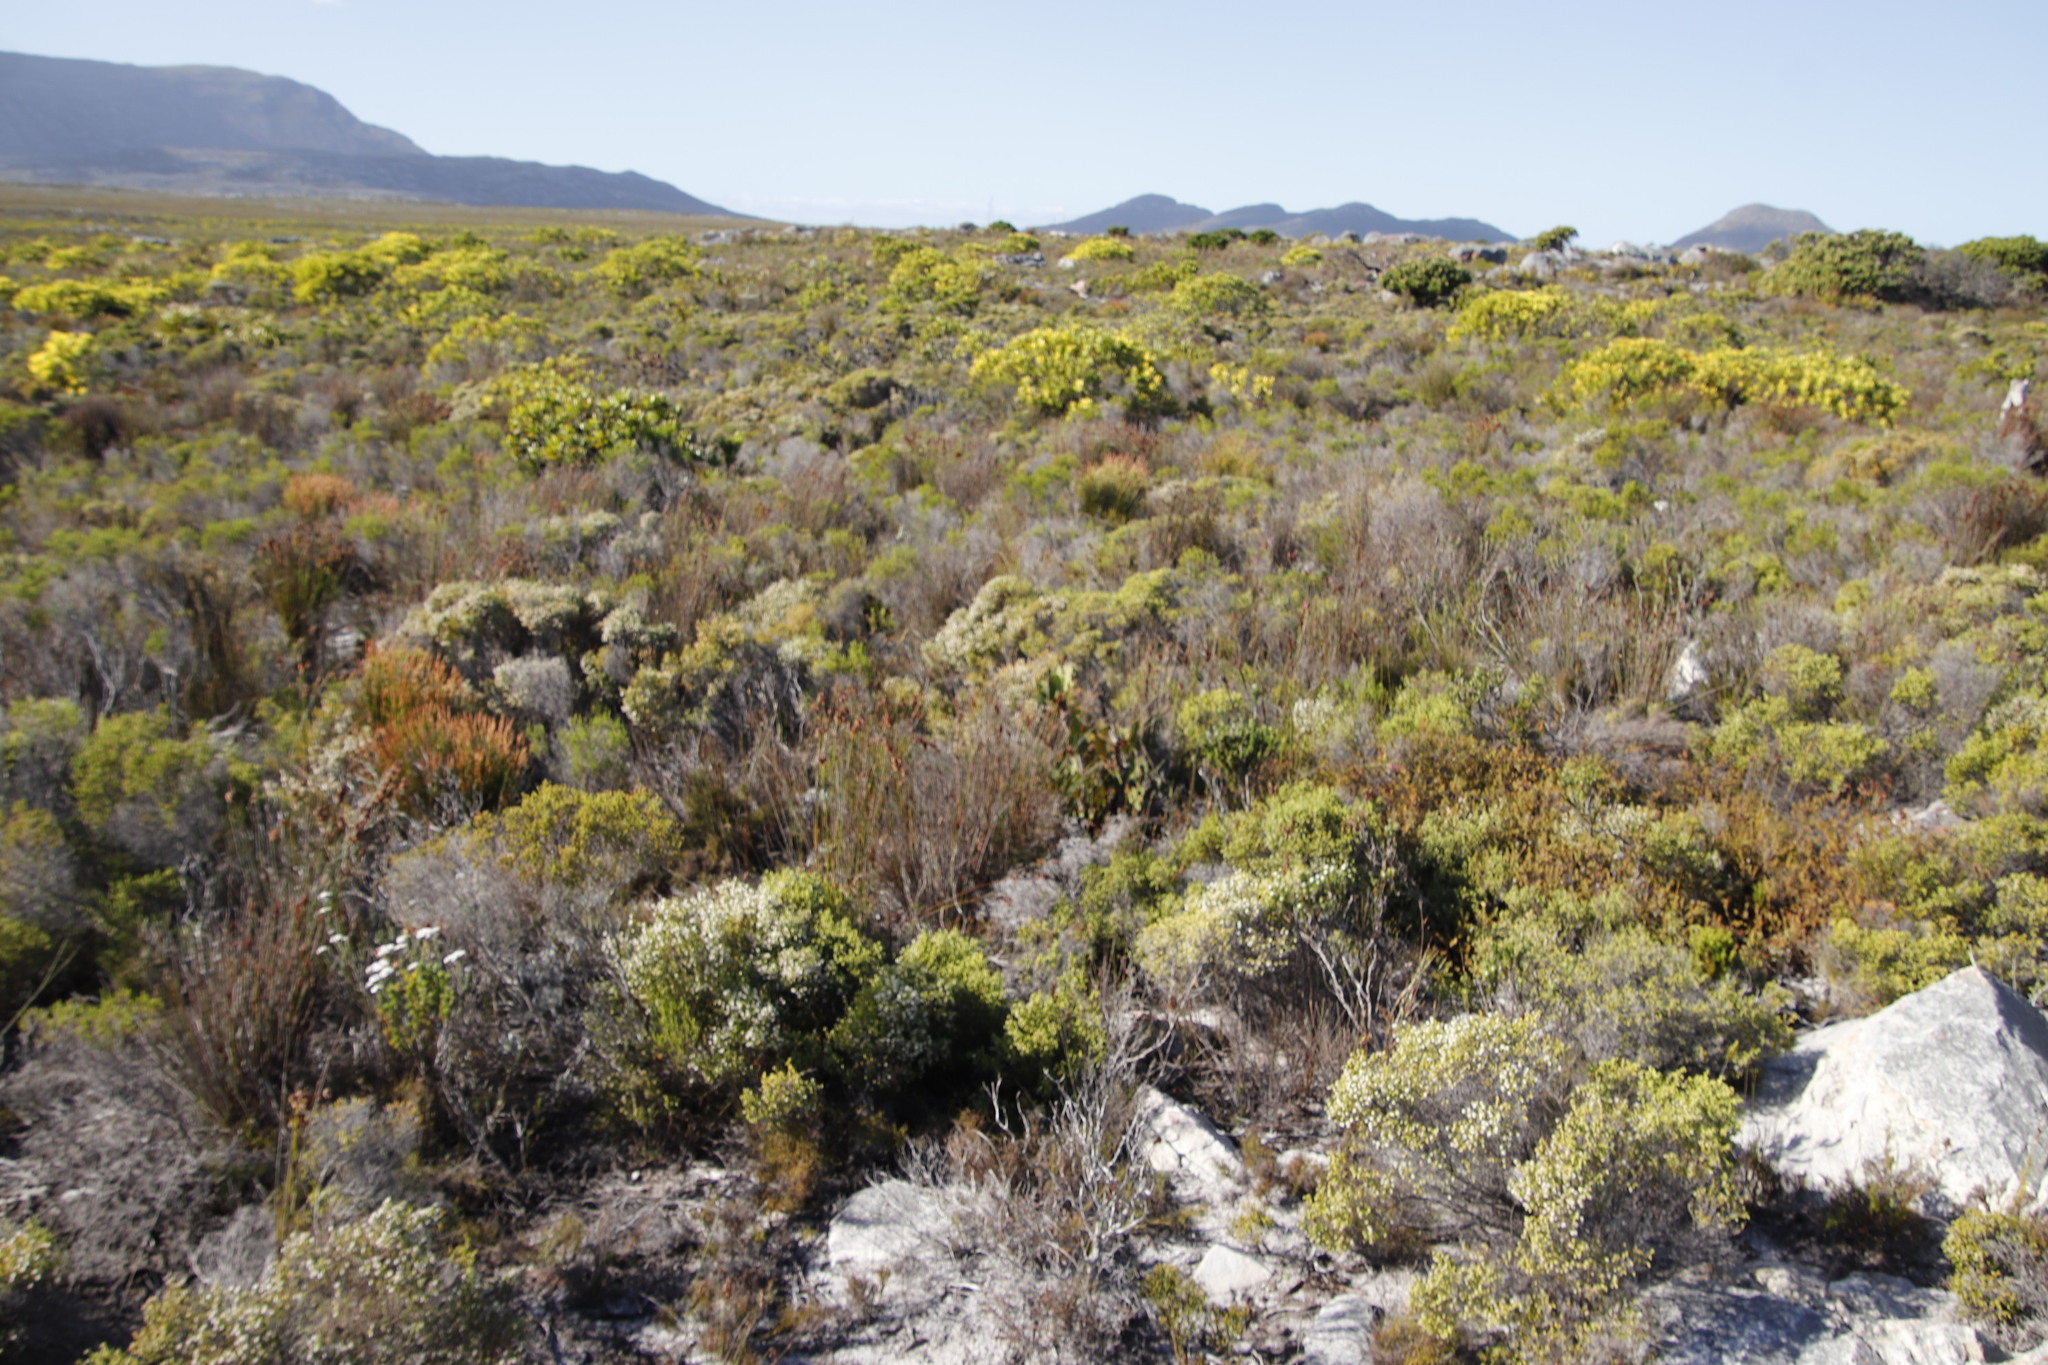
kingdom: Plantae
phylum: Tracheophyta
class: Magnoliopsida
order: Ericales
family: Ericaceae
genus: Erica
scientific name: Erica labialis
